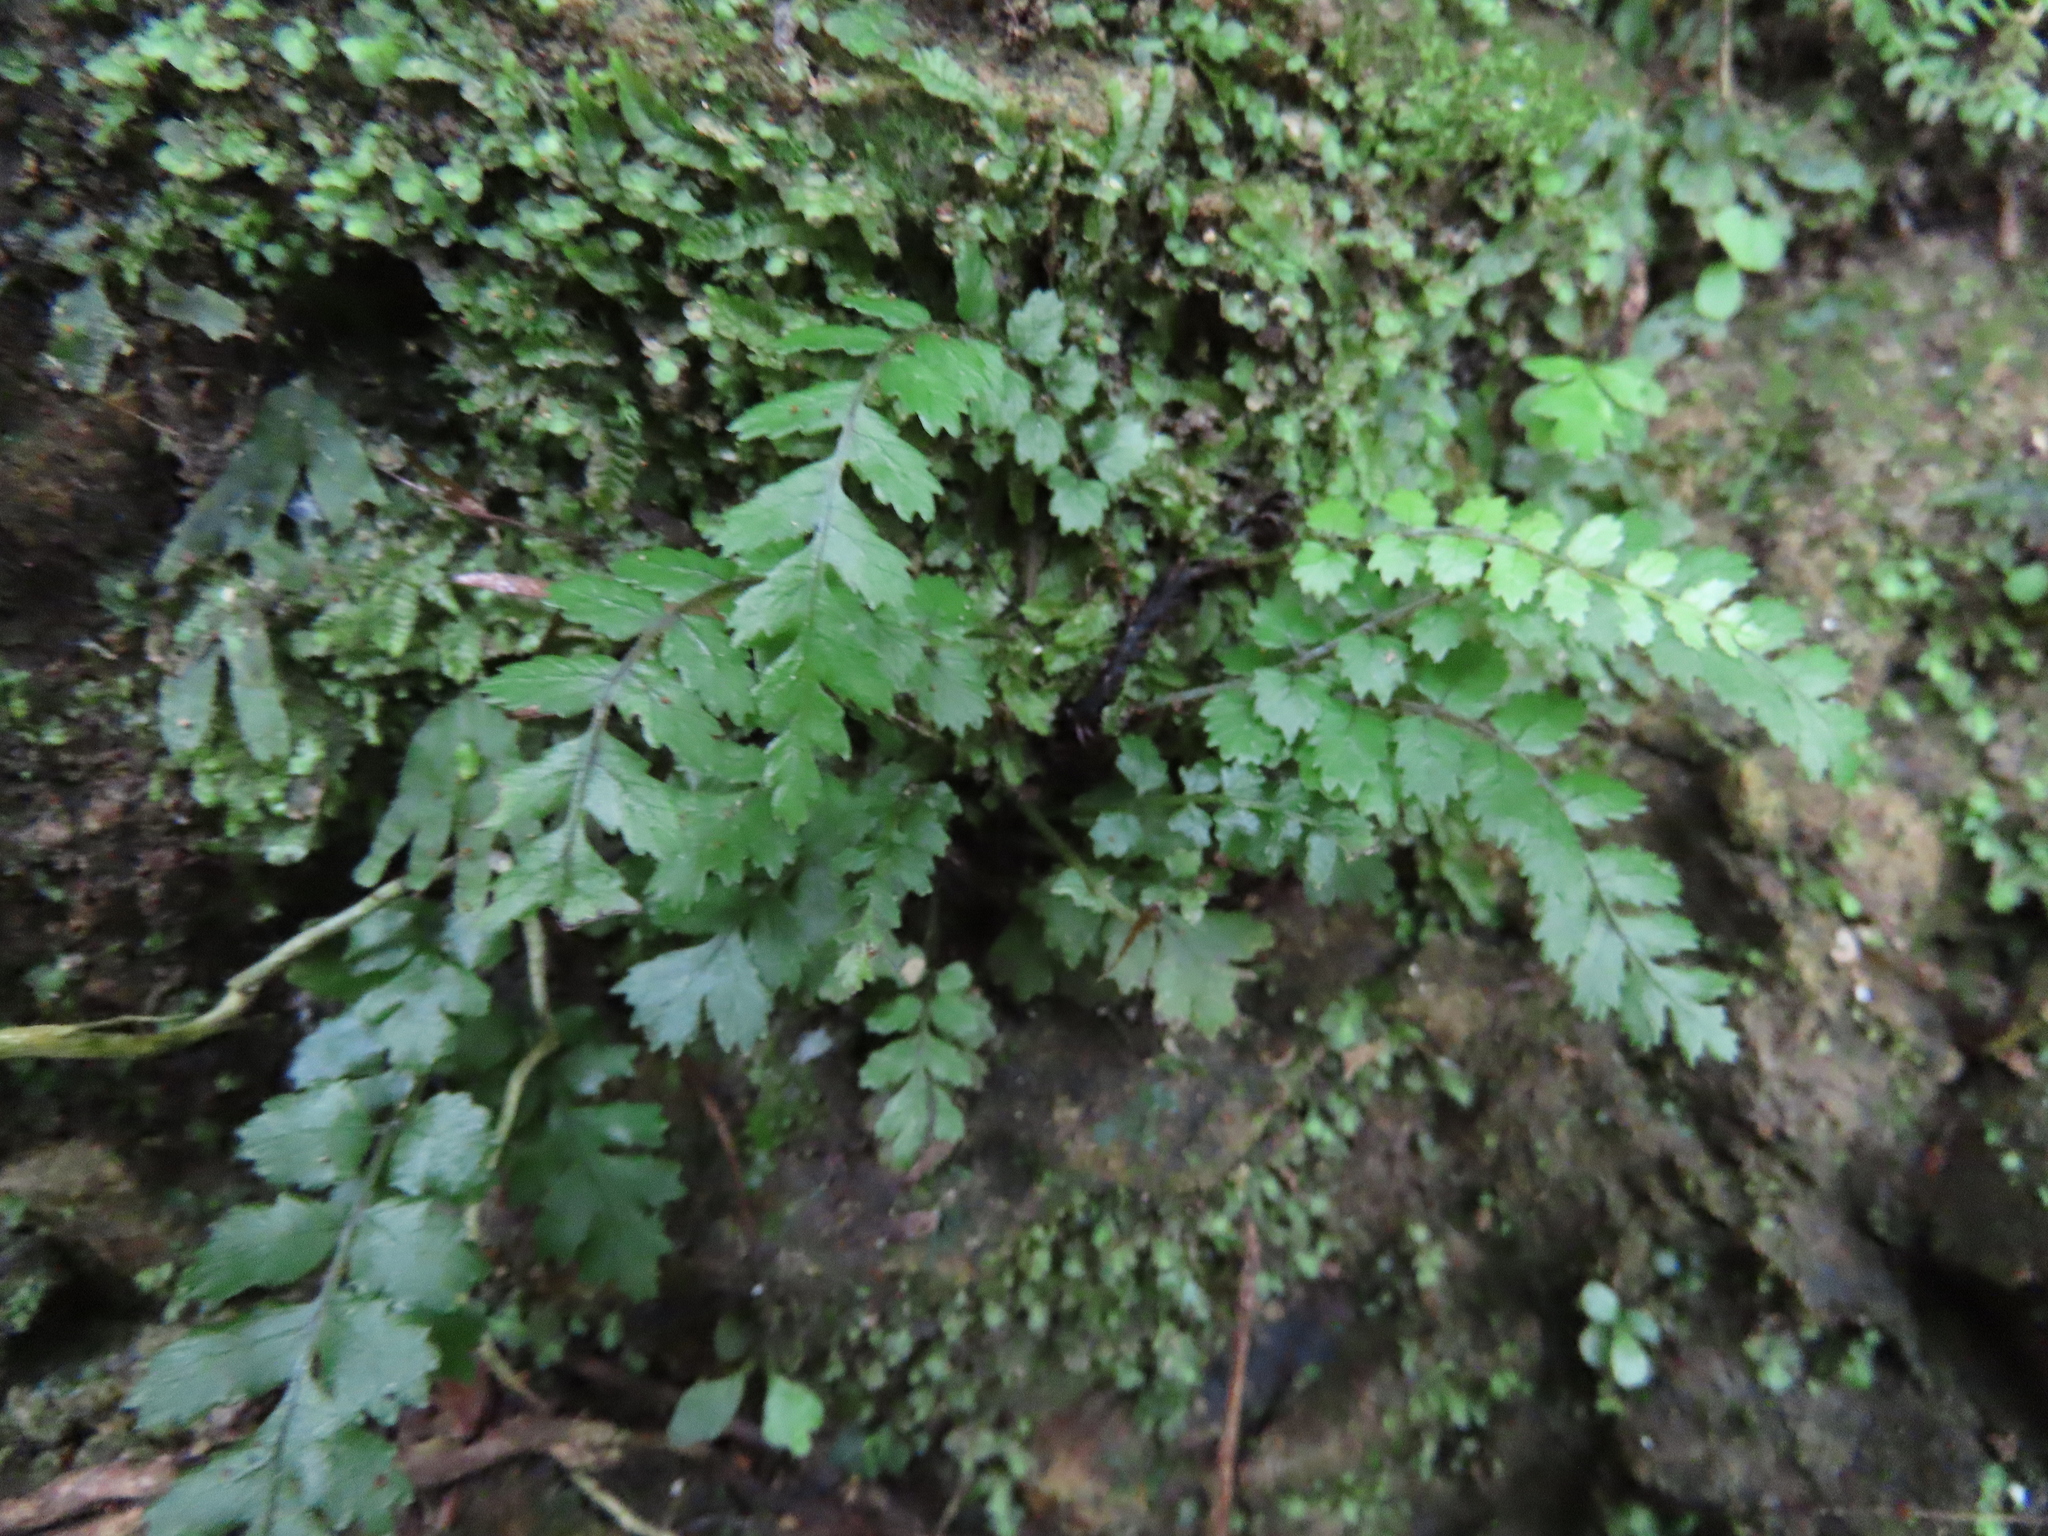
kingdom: Plantae
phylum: Tracheophyta
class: Polypodiopsida
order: Polypodiales
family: Blechnaceae
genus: Icarus
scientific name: Icarus filiformis
